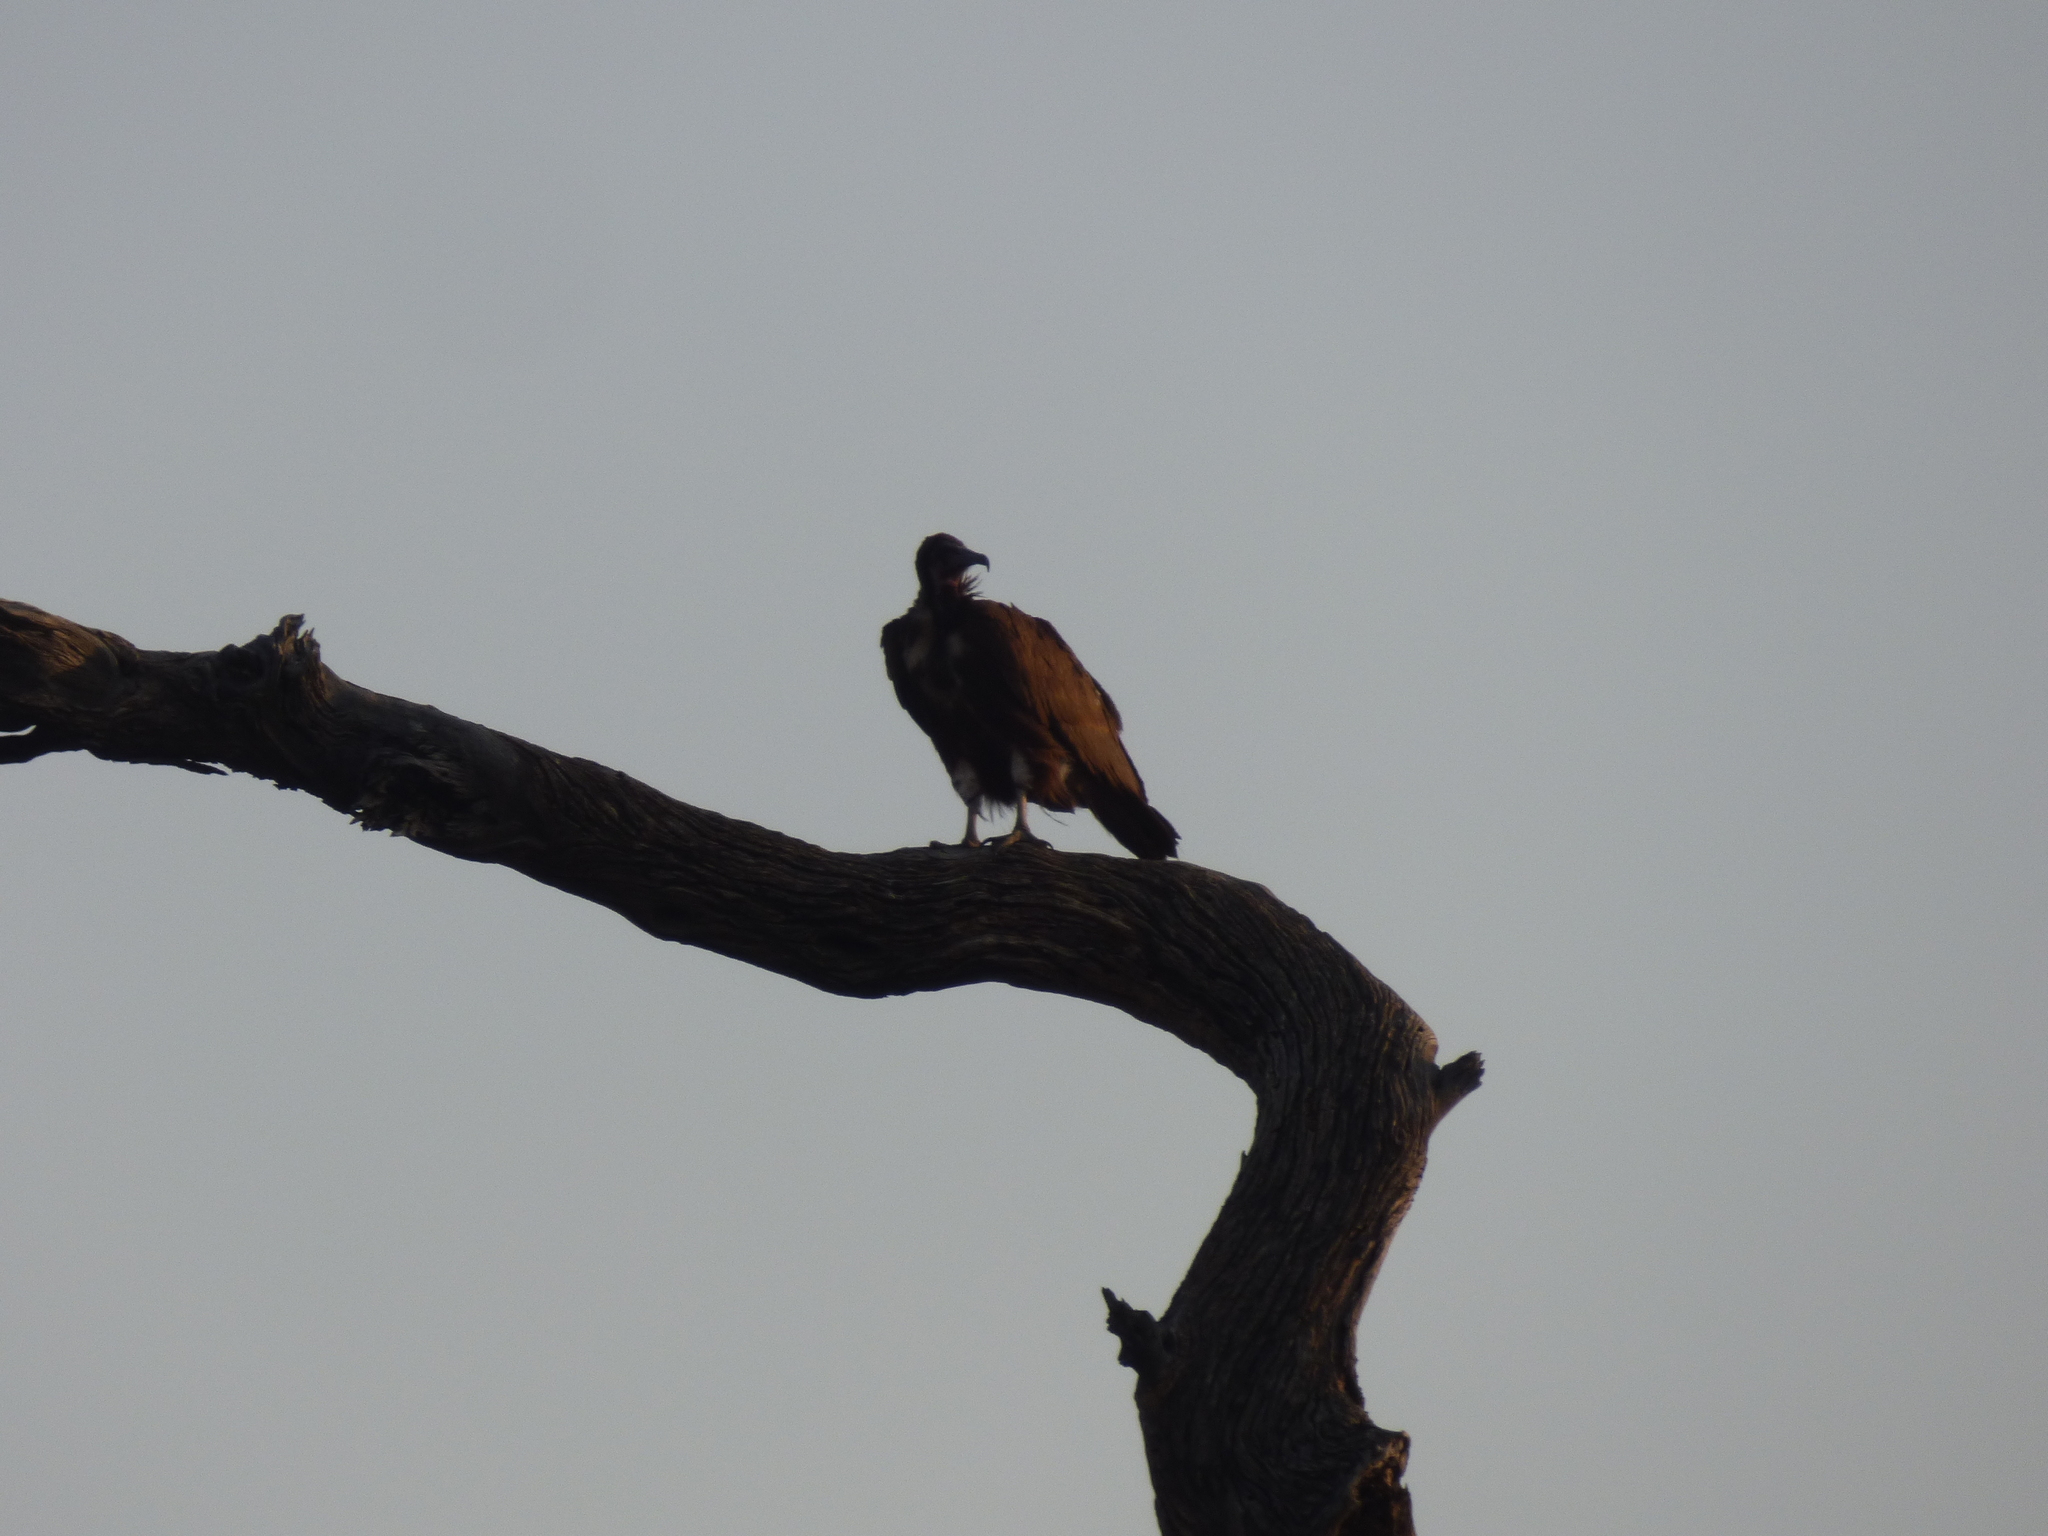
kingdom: Animalia
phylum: Chordata
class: Aves
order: Accipitriformes
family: Accipitridae
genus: Necrosyrtes
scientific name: Necrosyrtes monachus
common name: Hooded vulture
